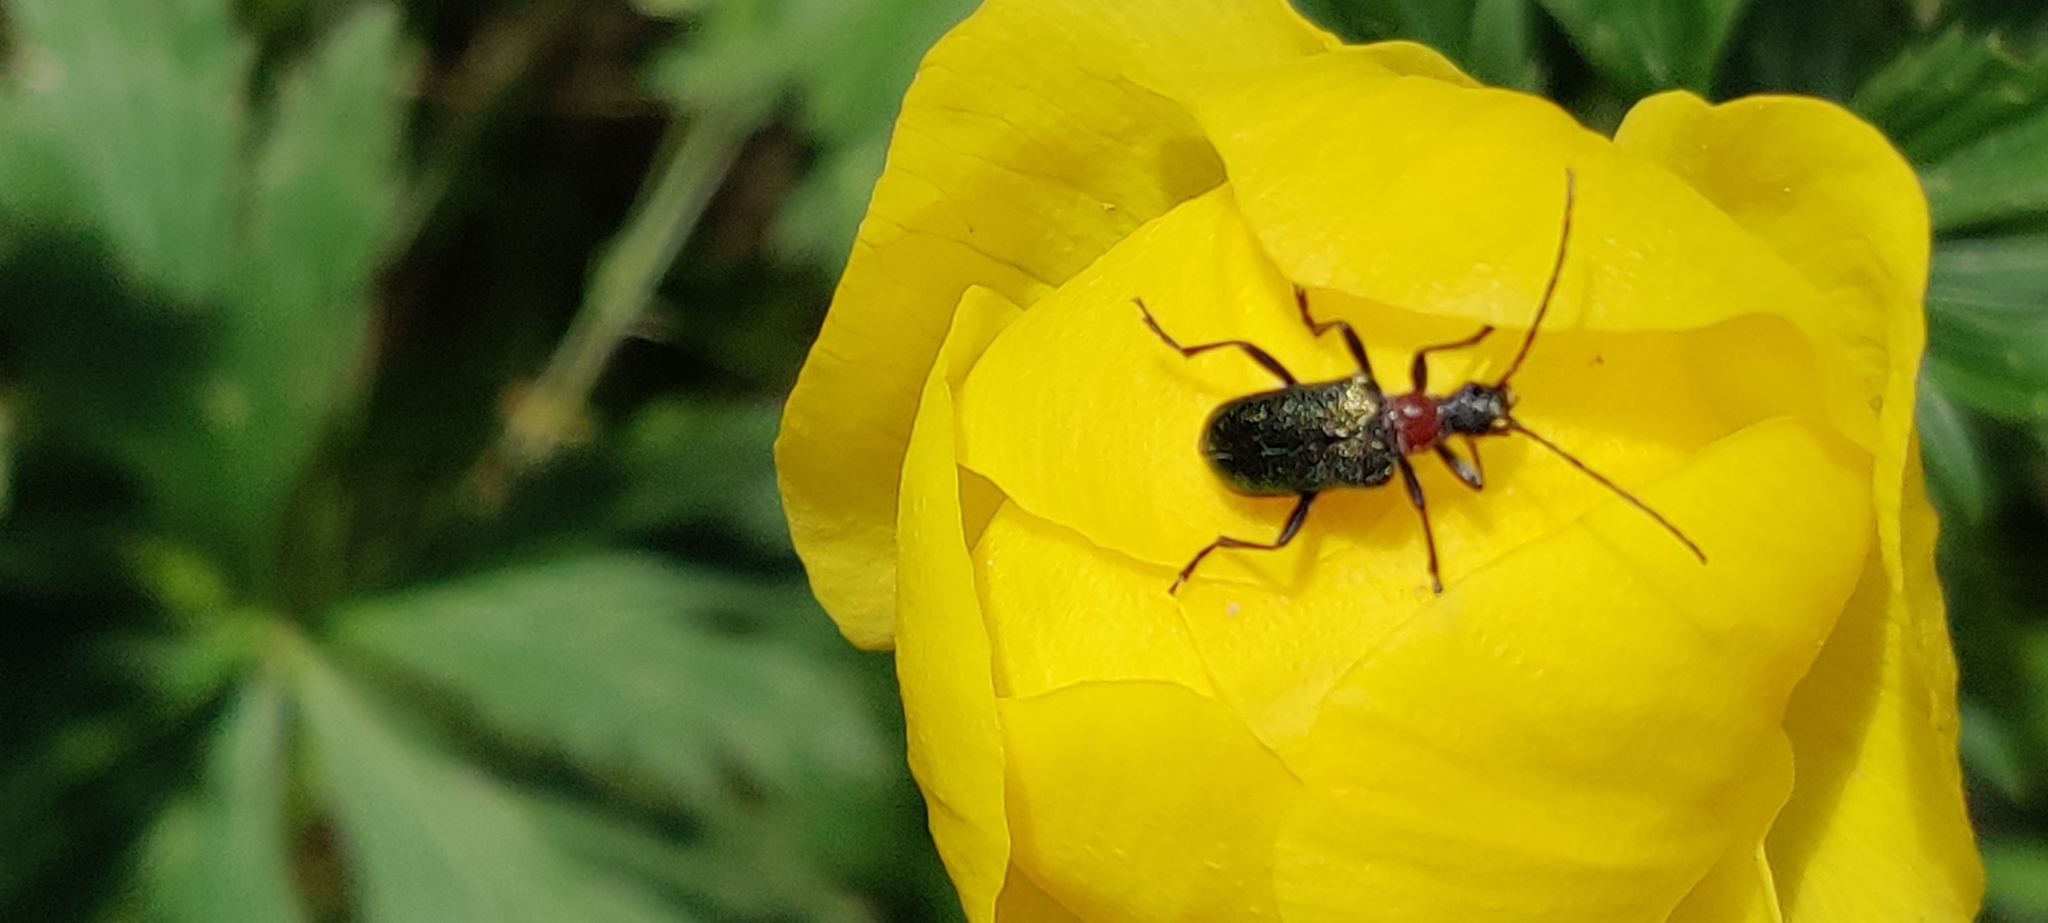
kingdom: Animalia
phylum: Arthropoda
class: Insecta
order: Coleoptera
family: Cerambycidae
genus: Gaurotes
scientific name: Gaurotes virginea
